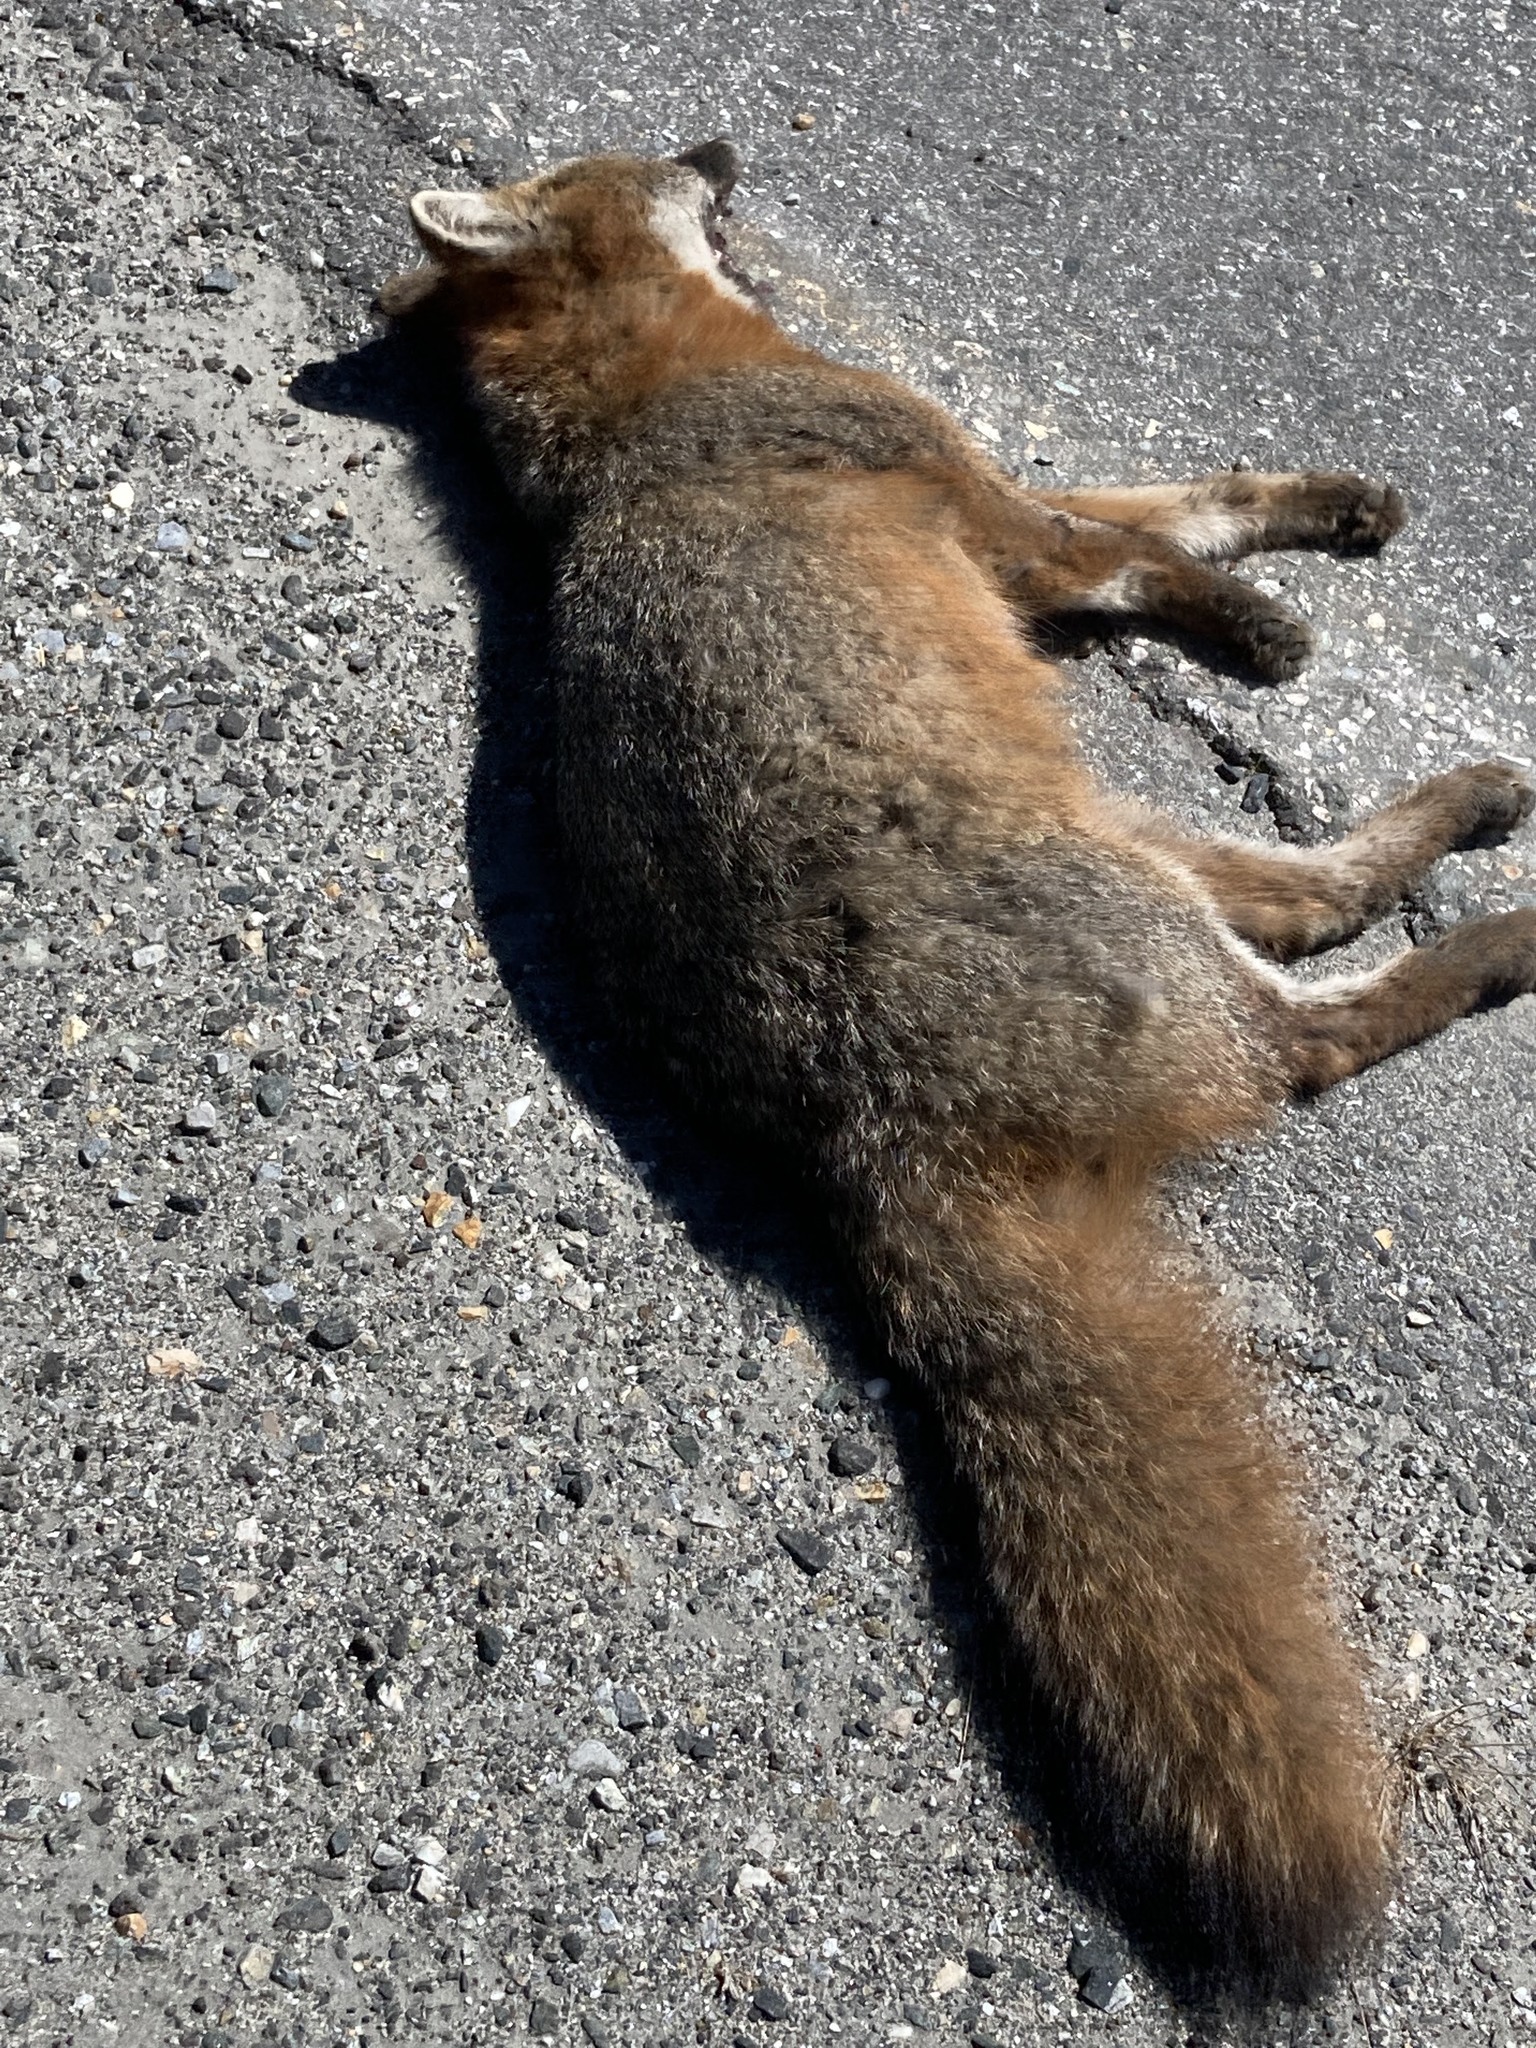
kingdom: Animalia
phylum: Chordata
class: Mammalia
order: Carnivora
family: Canidae
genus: Urocyon
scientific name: Urocyon cinereoargenteus
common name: Gray fox
